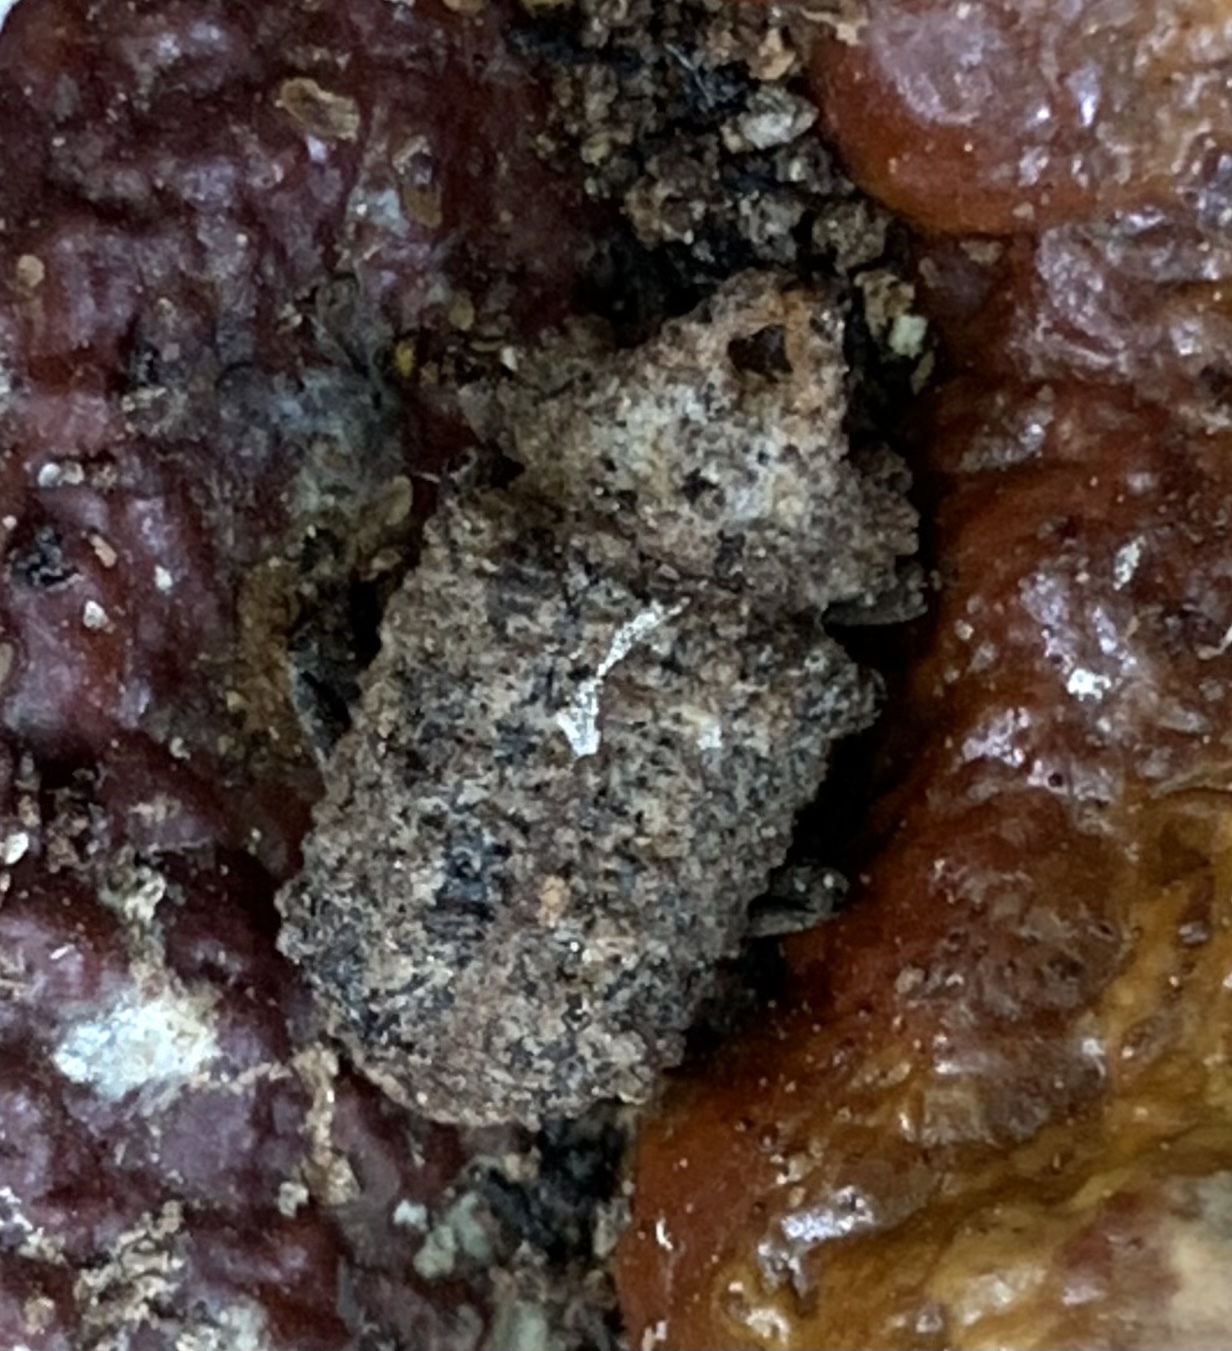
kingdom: Animalia
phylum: Arthropoda
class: Insecta
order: Coleoptera
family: Tenebrionidae
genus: Gnatocerus
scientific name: Gnatocerus cornutus
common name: Broad-horned flour beetle
